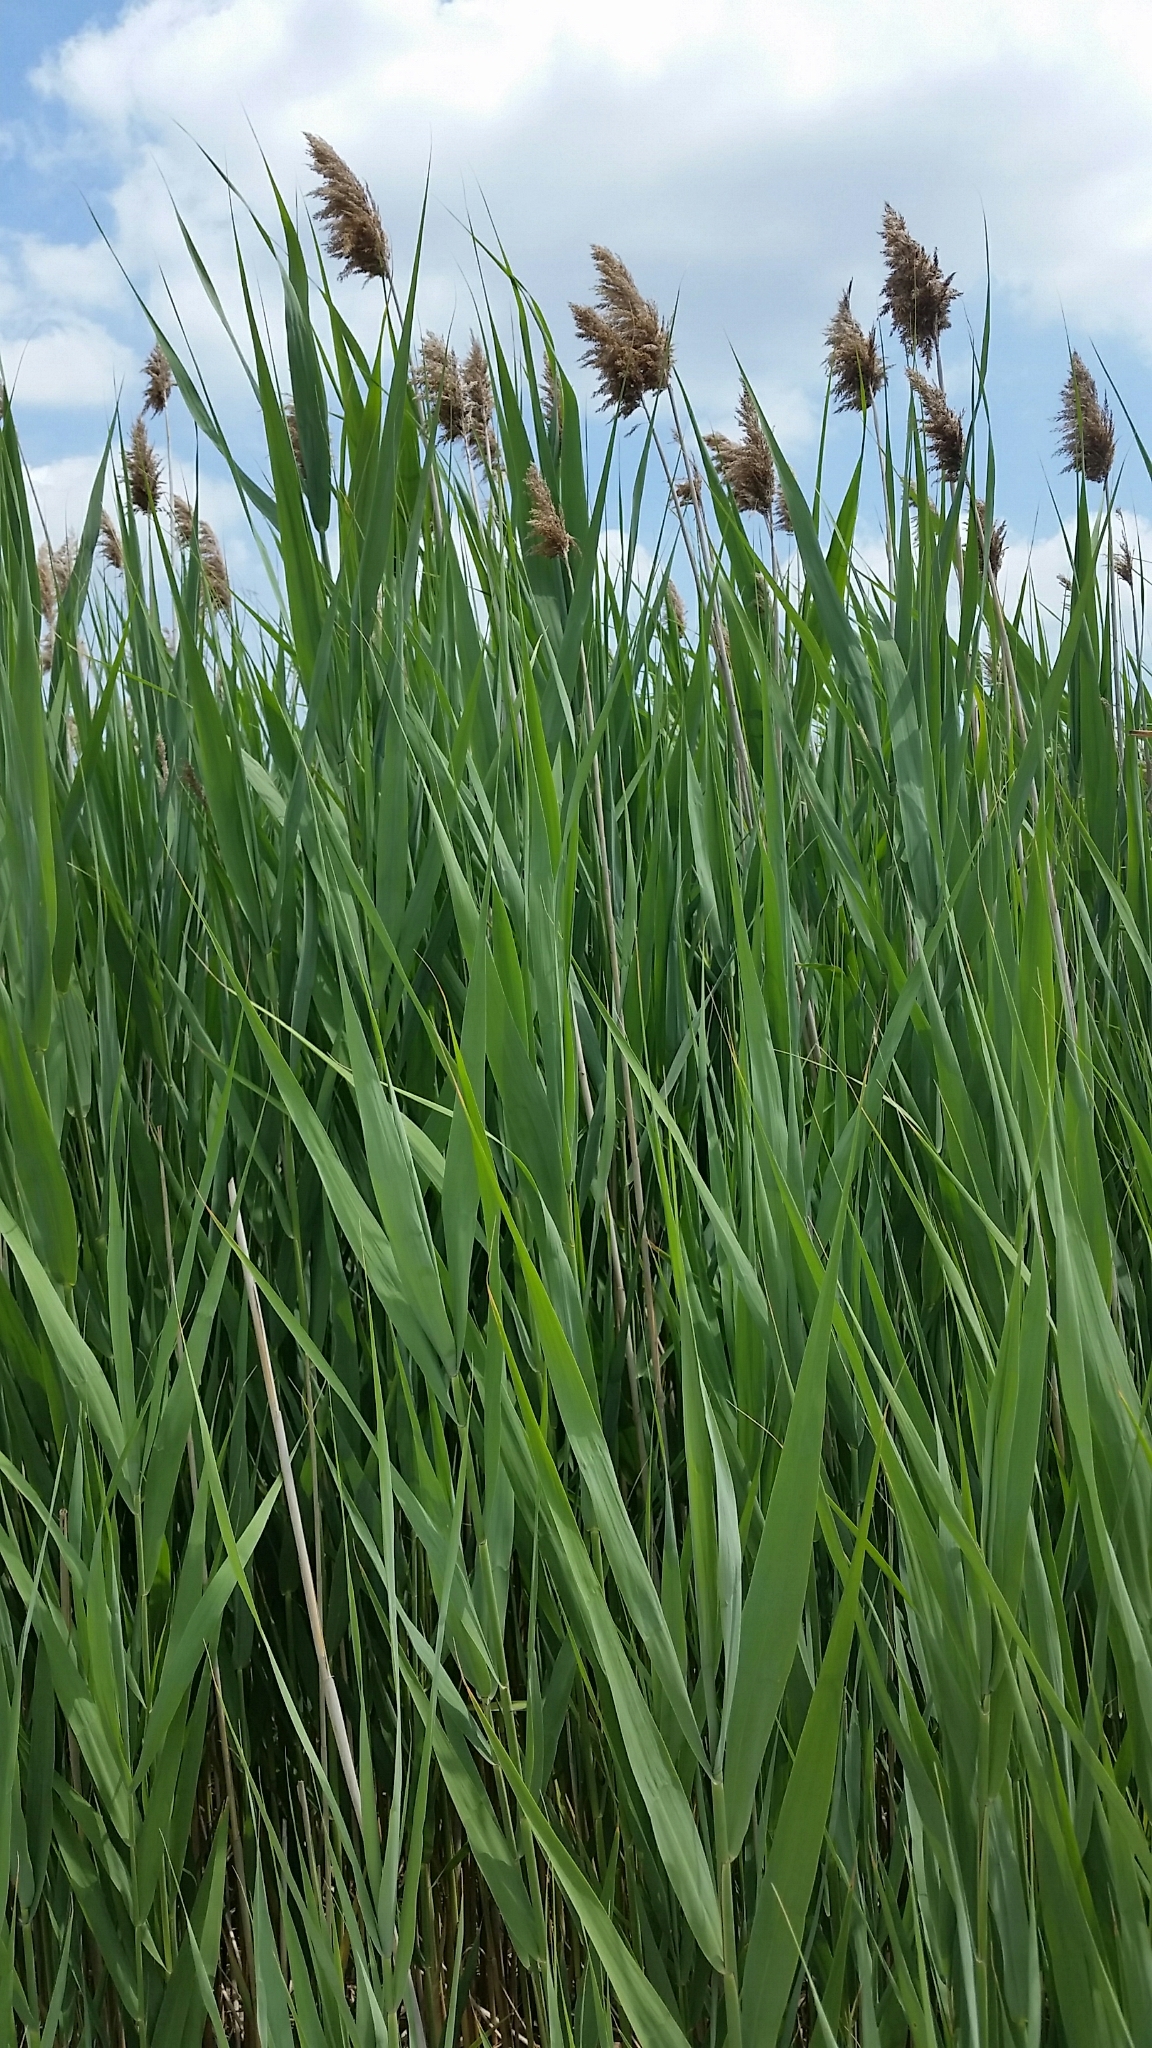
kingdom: Plantae
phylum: Tracheophyta
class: Liliopsida
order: Poales
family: Poaceae
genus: Phragmites
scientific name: Phragmites australis
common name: Common reed
